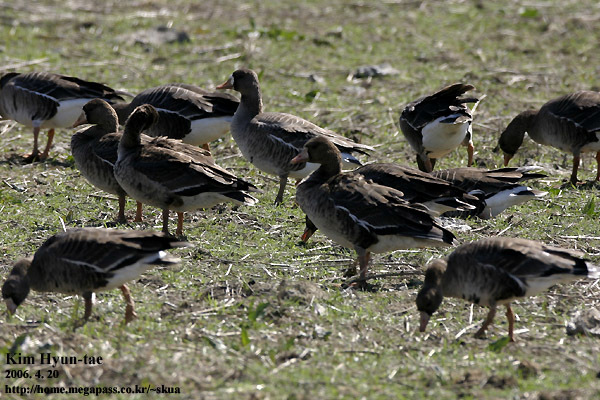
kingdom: Animalia
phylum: Chordata
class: Aves
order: Anseriformes
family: Anatidae
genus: Anser
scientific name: Anser albifrons
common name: Greater white-fronted goose
